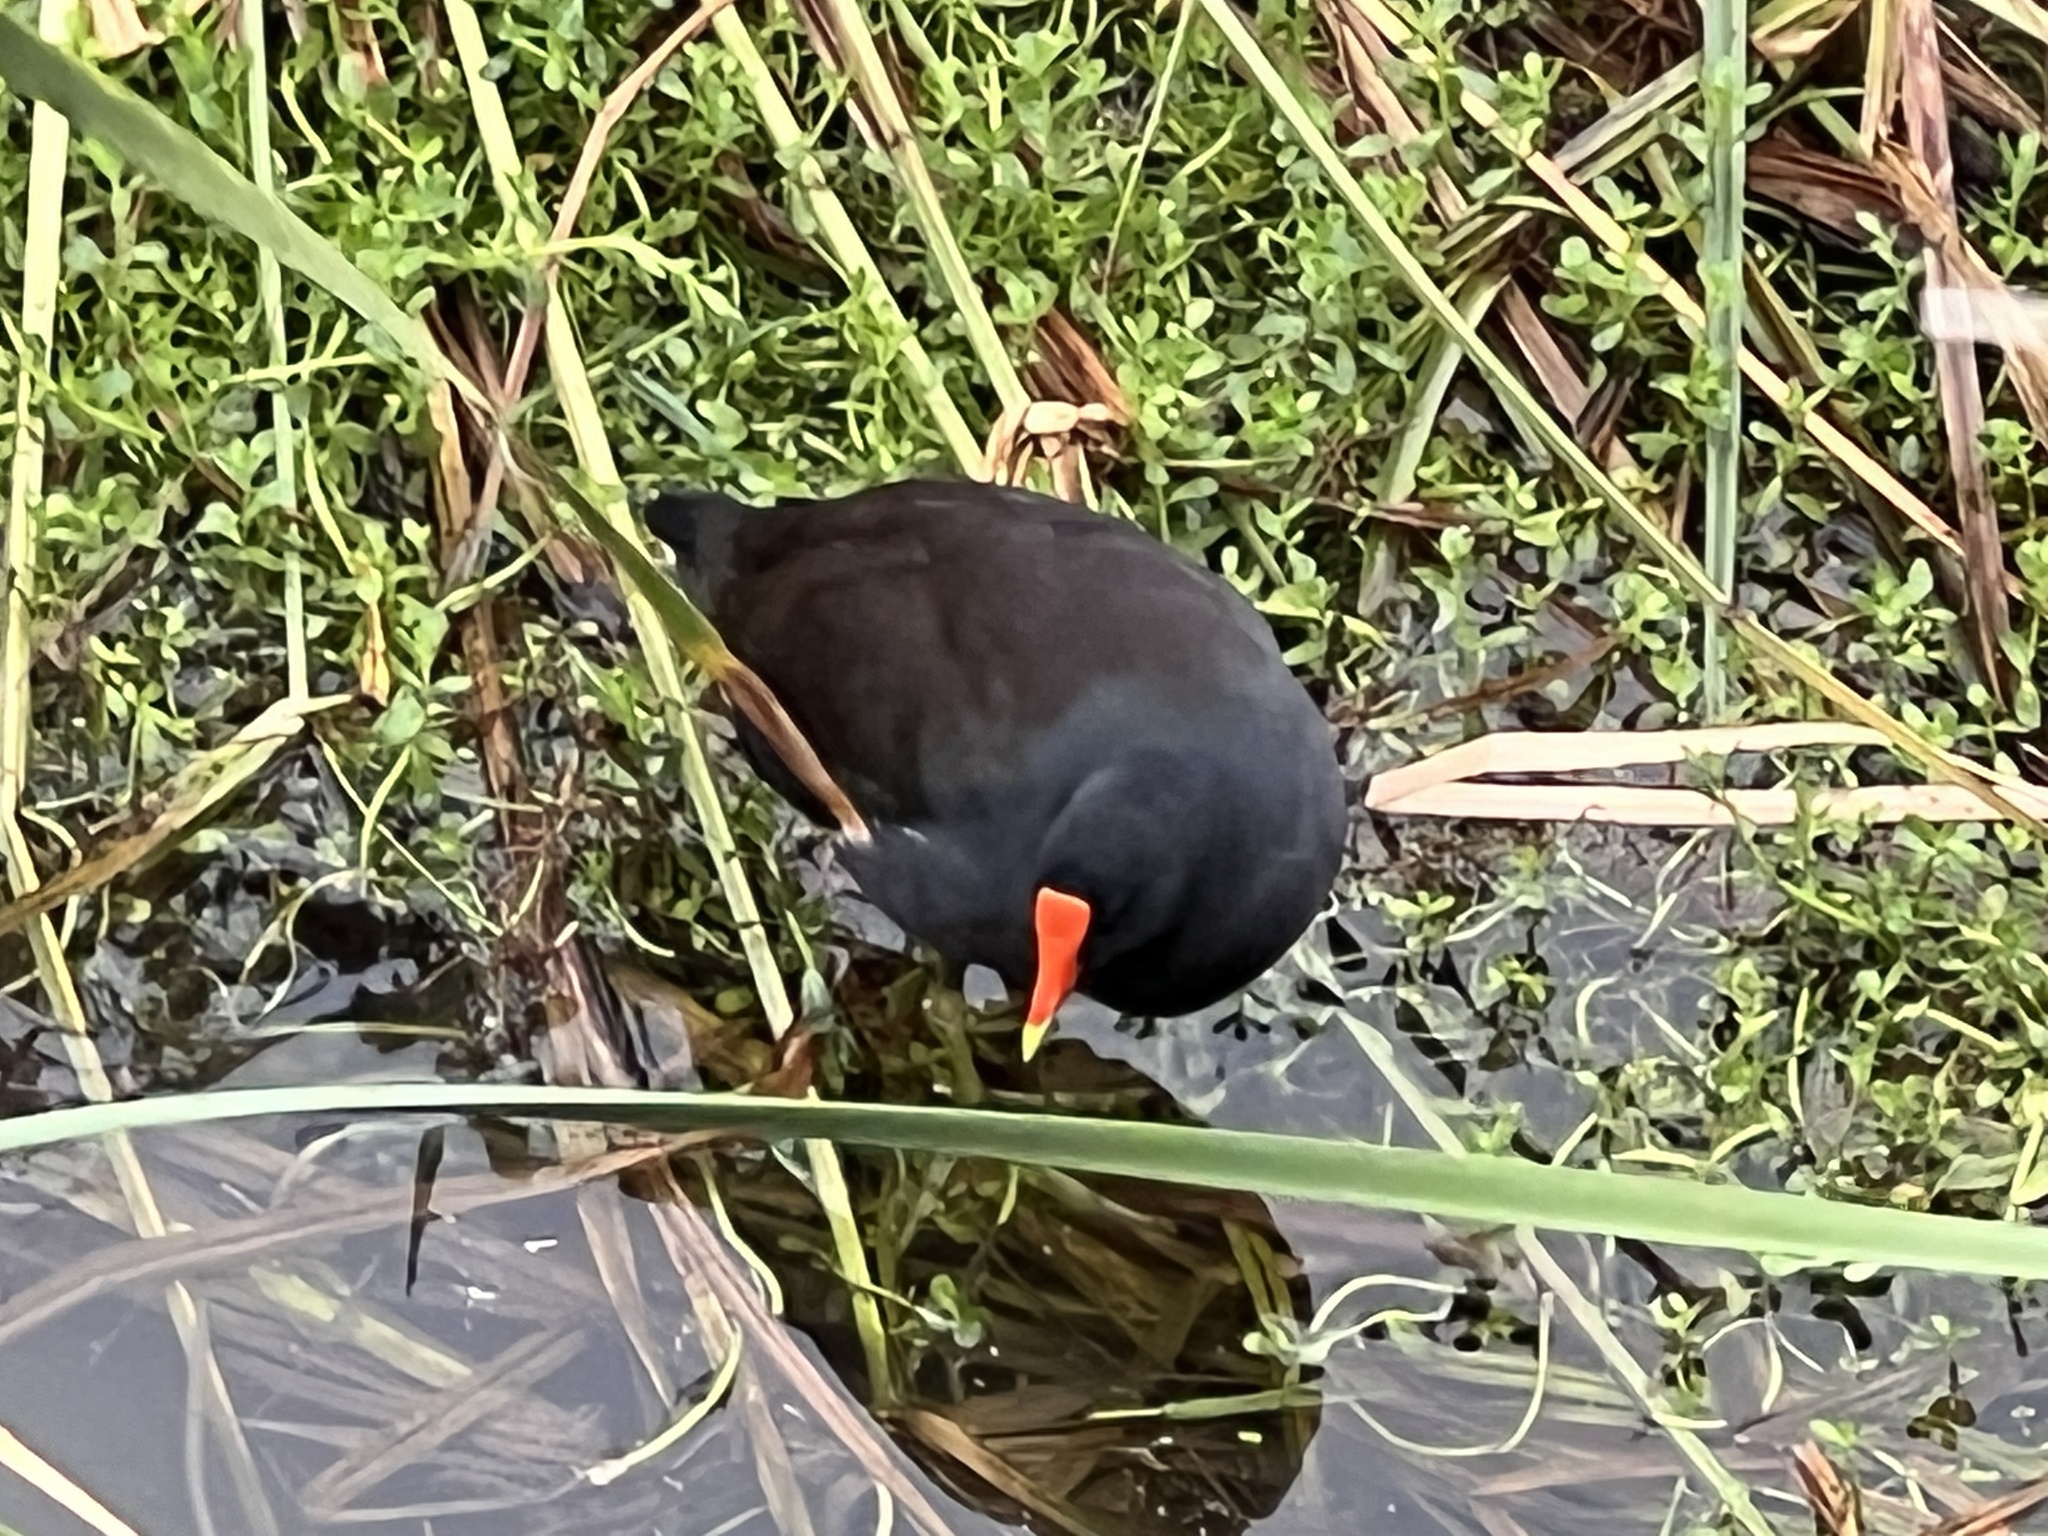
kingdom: Animalia
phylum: Chordata
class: Aves
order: Gruiformes
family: Rallidae
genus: Gallinula
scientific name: Gallinula chloropus
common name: Common moorhen
